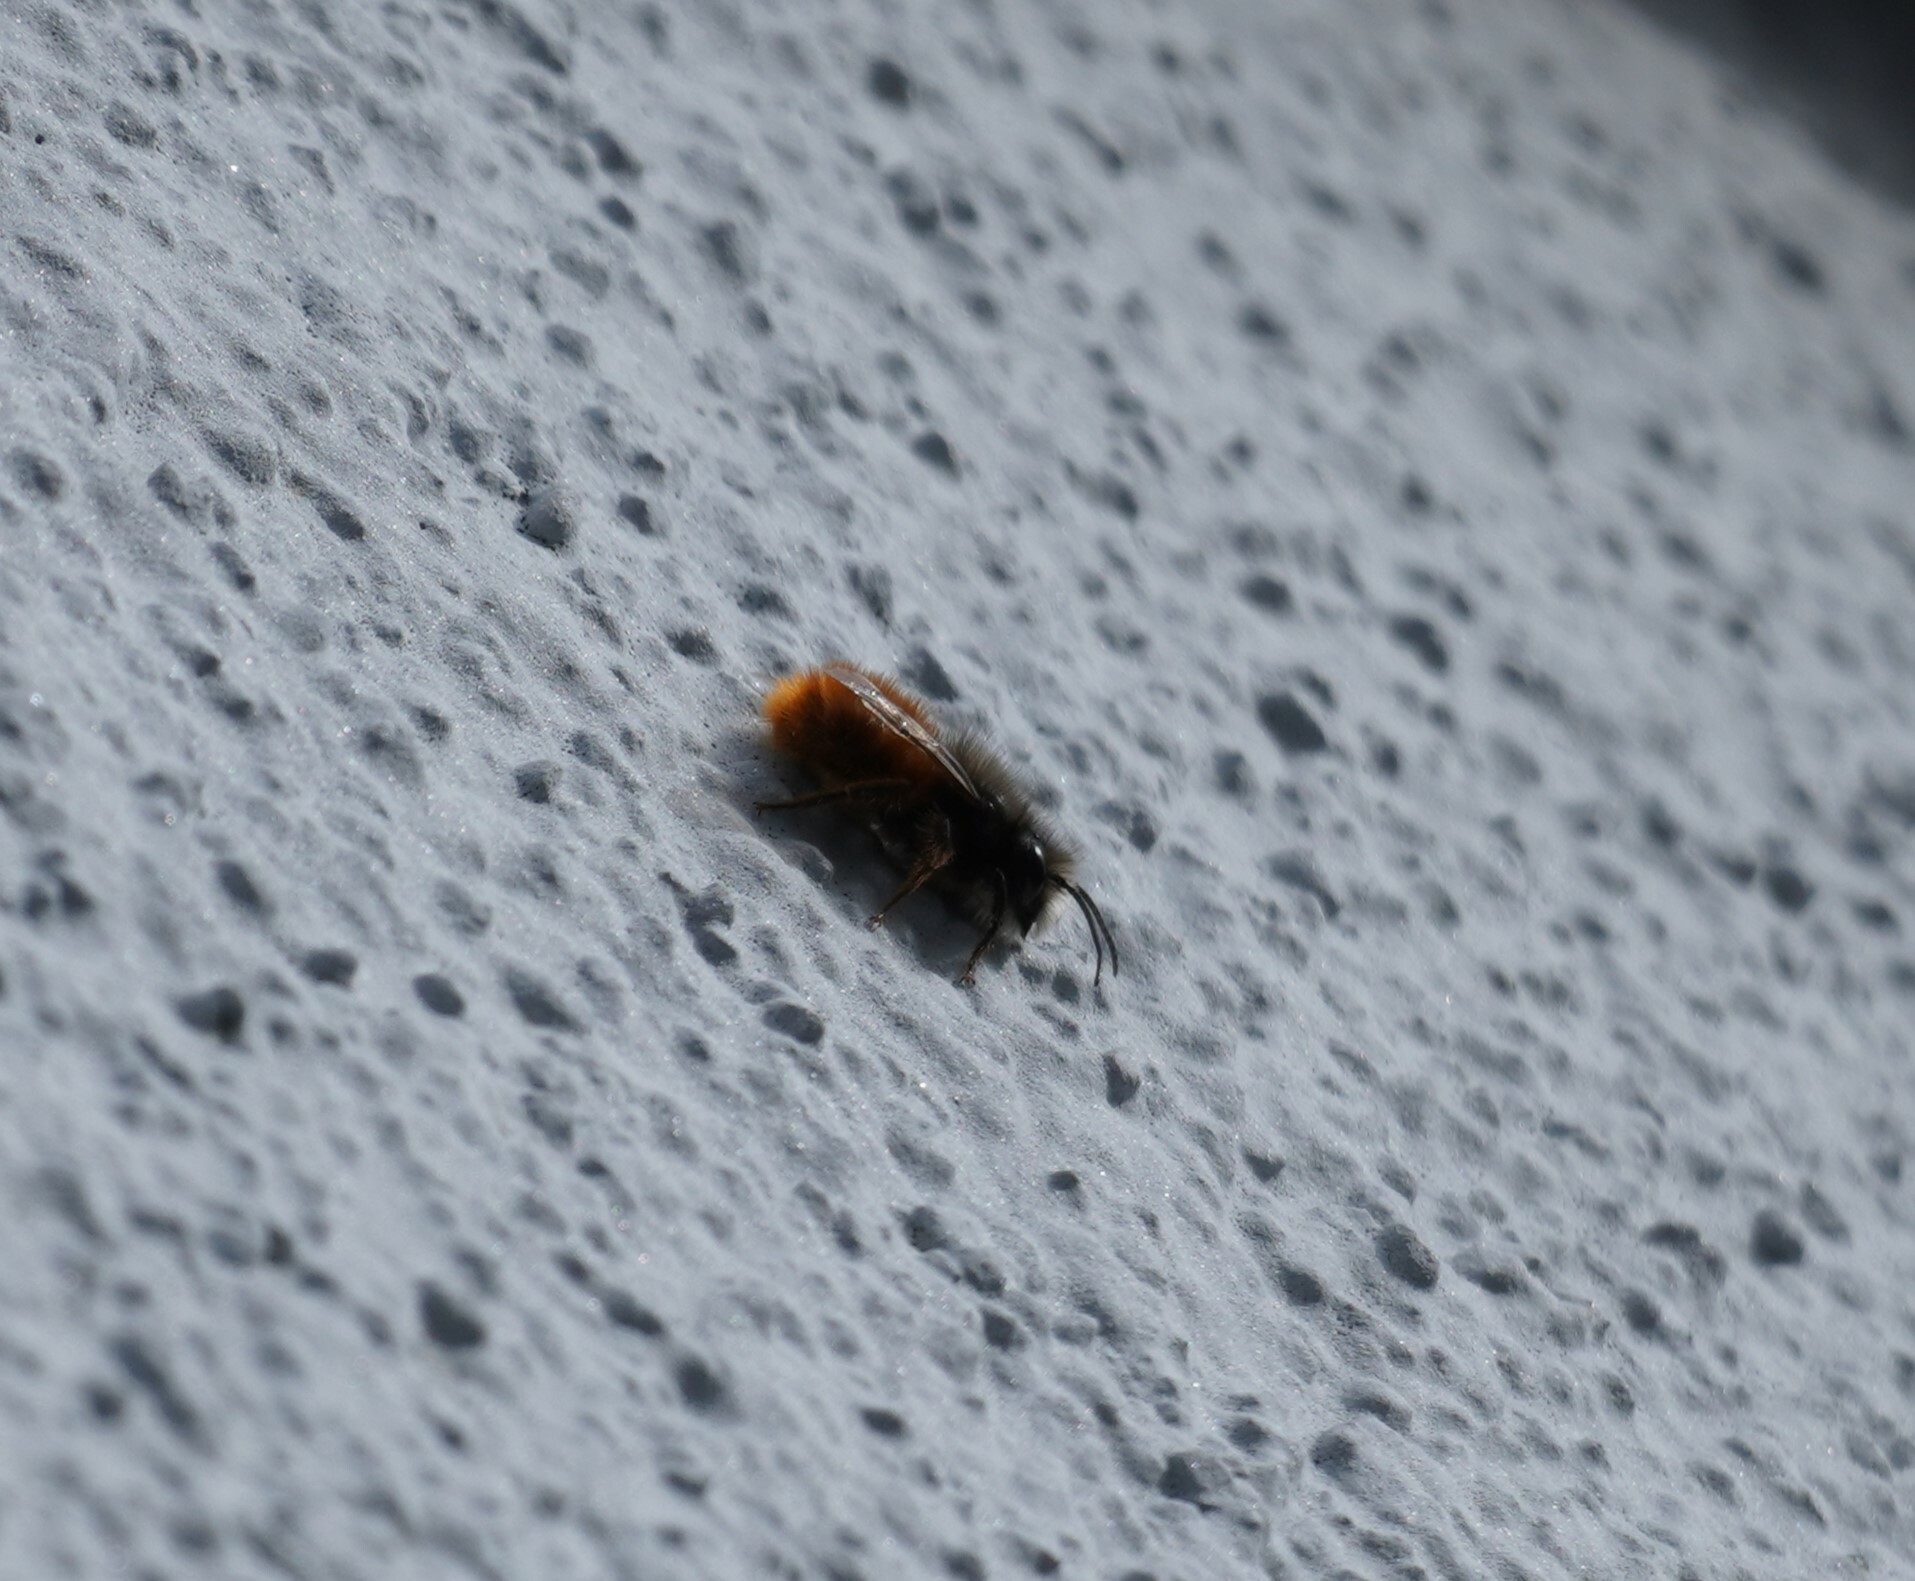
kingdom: Animalia
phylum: Arthropoda
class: Insecta
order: Hymenoptera
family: Megachilidae
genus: Osmia
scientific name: Osmia cornuta
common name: Mason bee
